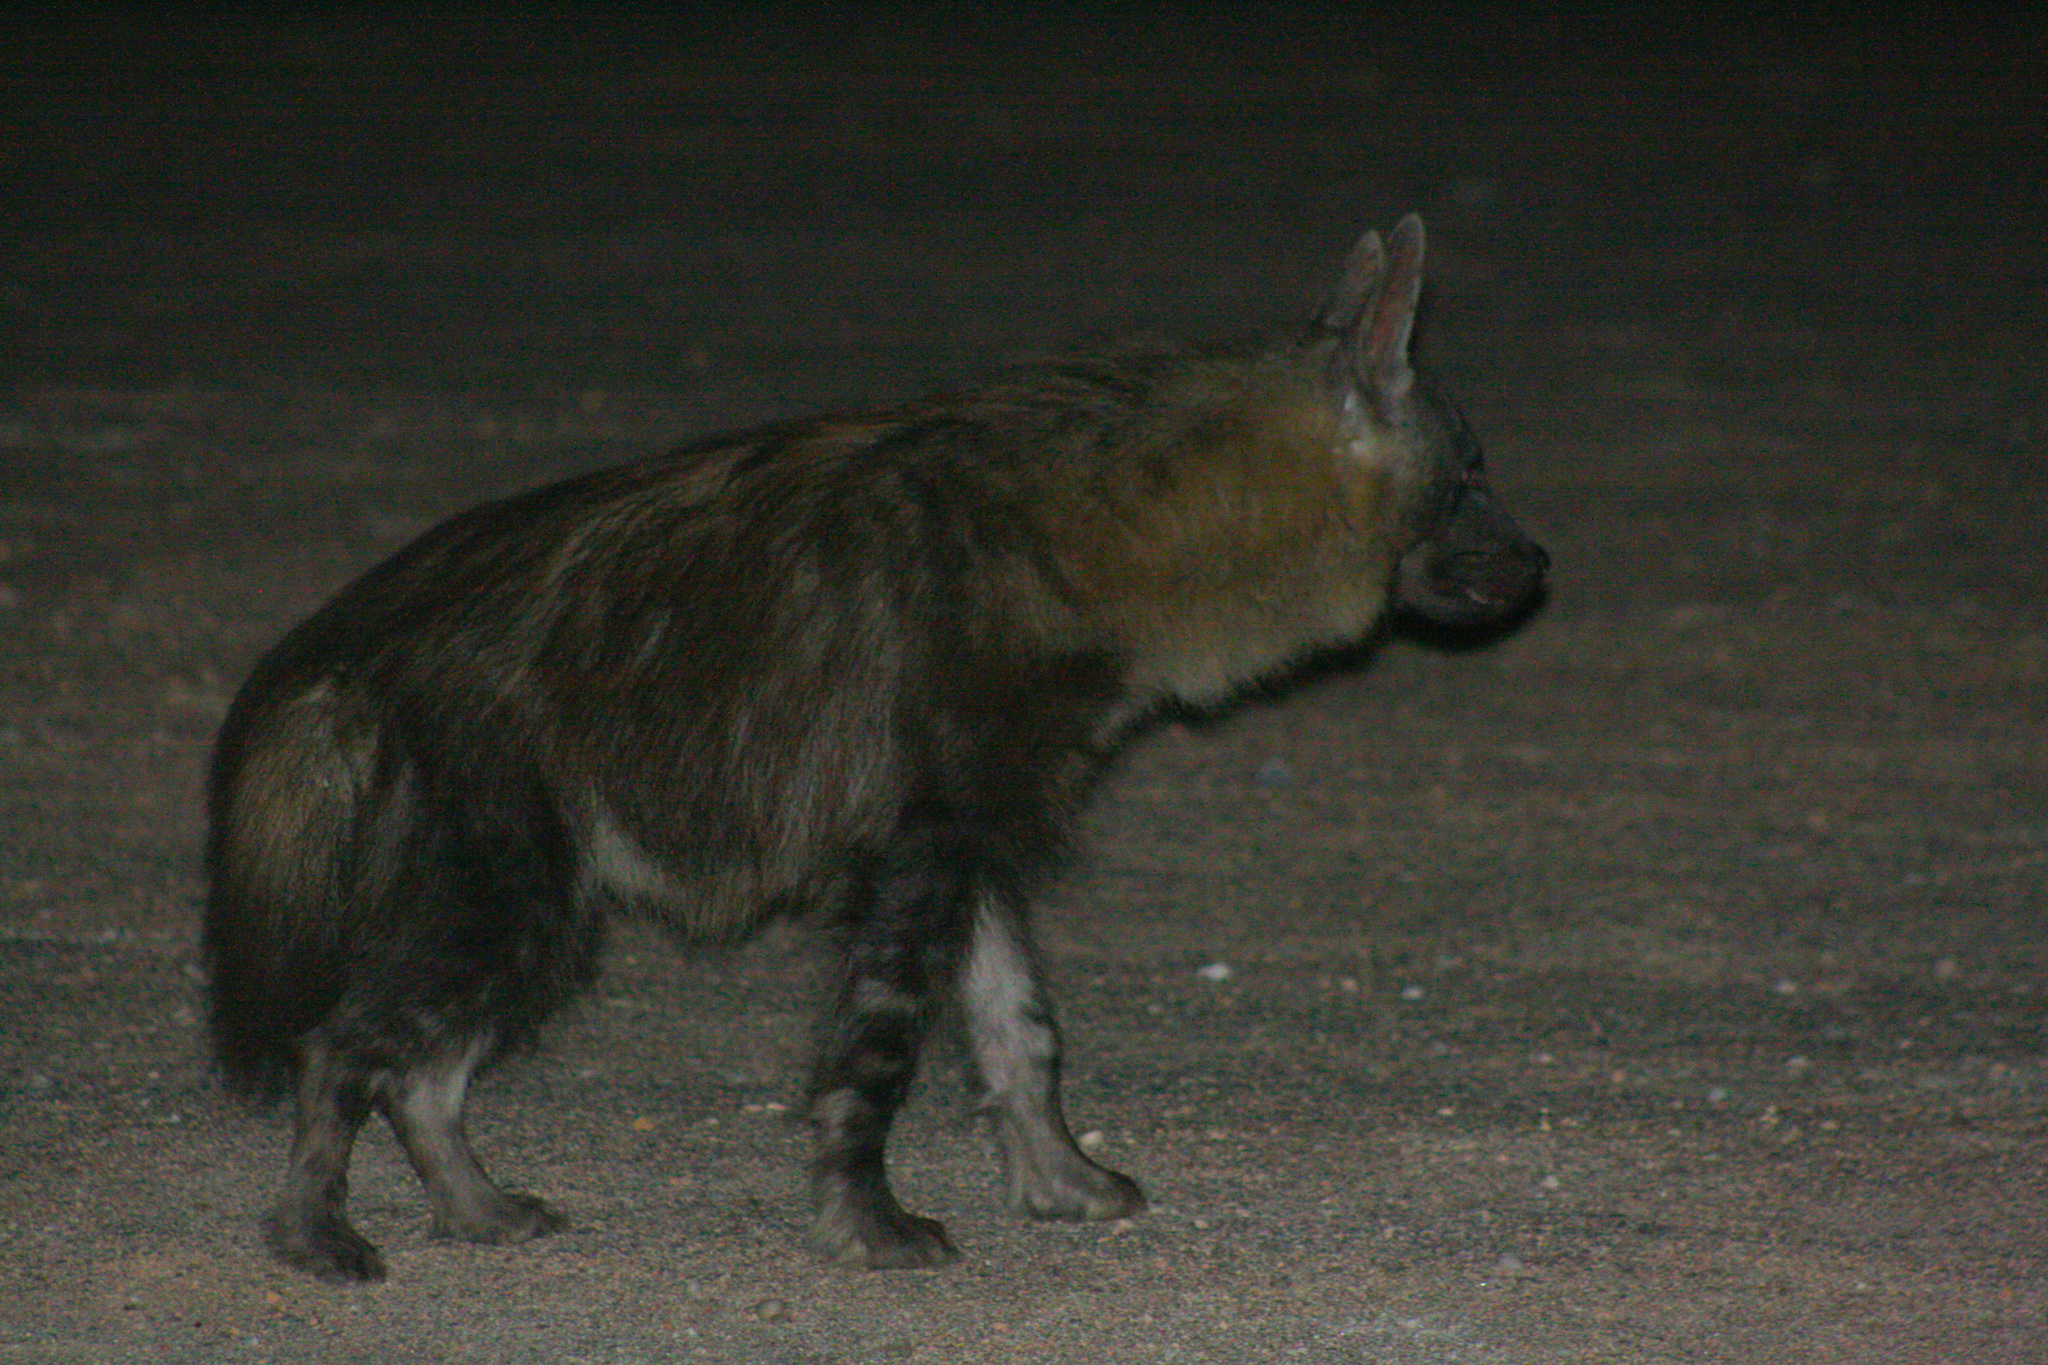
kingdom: Animalia
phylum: Chordata
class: Mammalia
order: Carnivora
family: Hyaenidae
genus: Hyaena
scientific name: Hyaena brunnea
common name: Brown hyena
